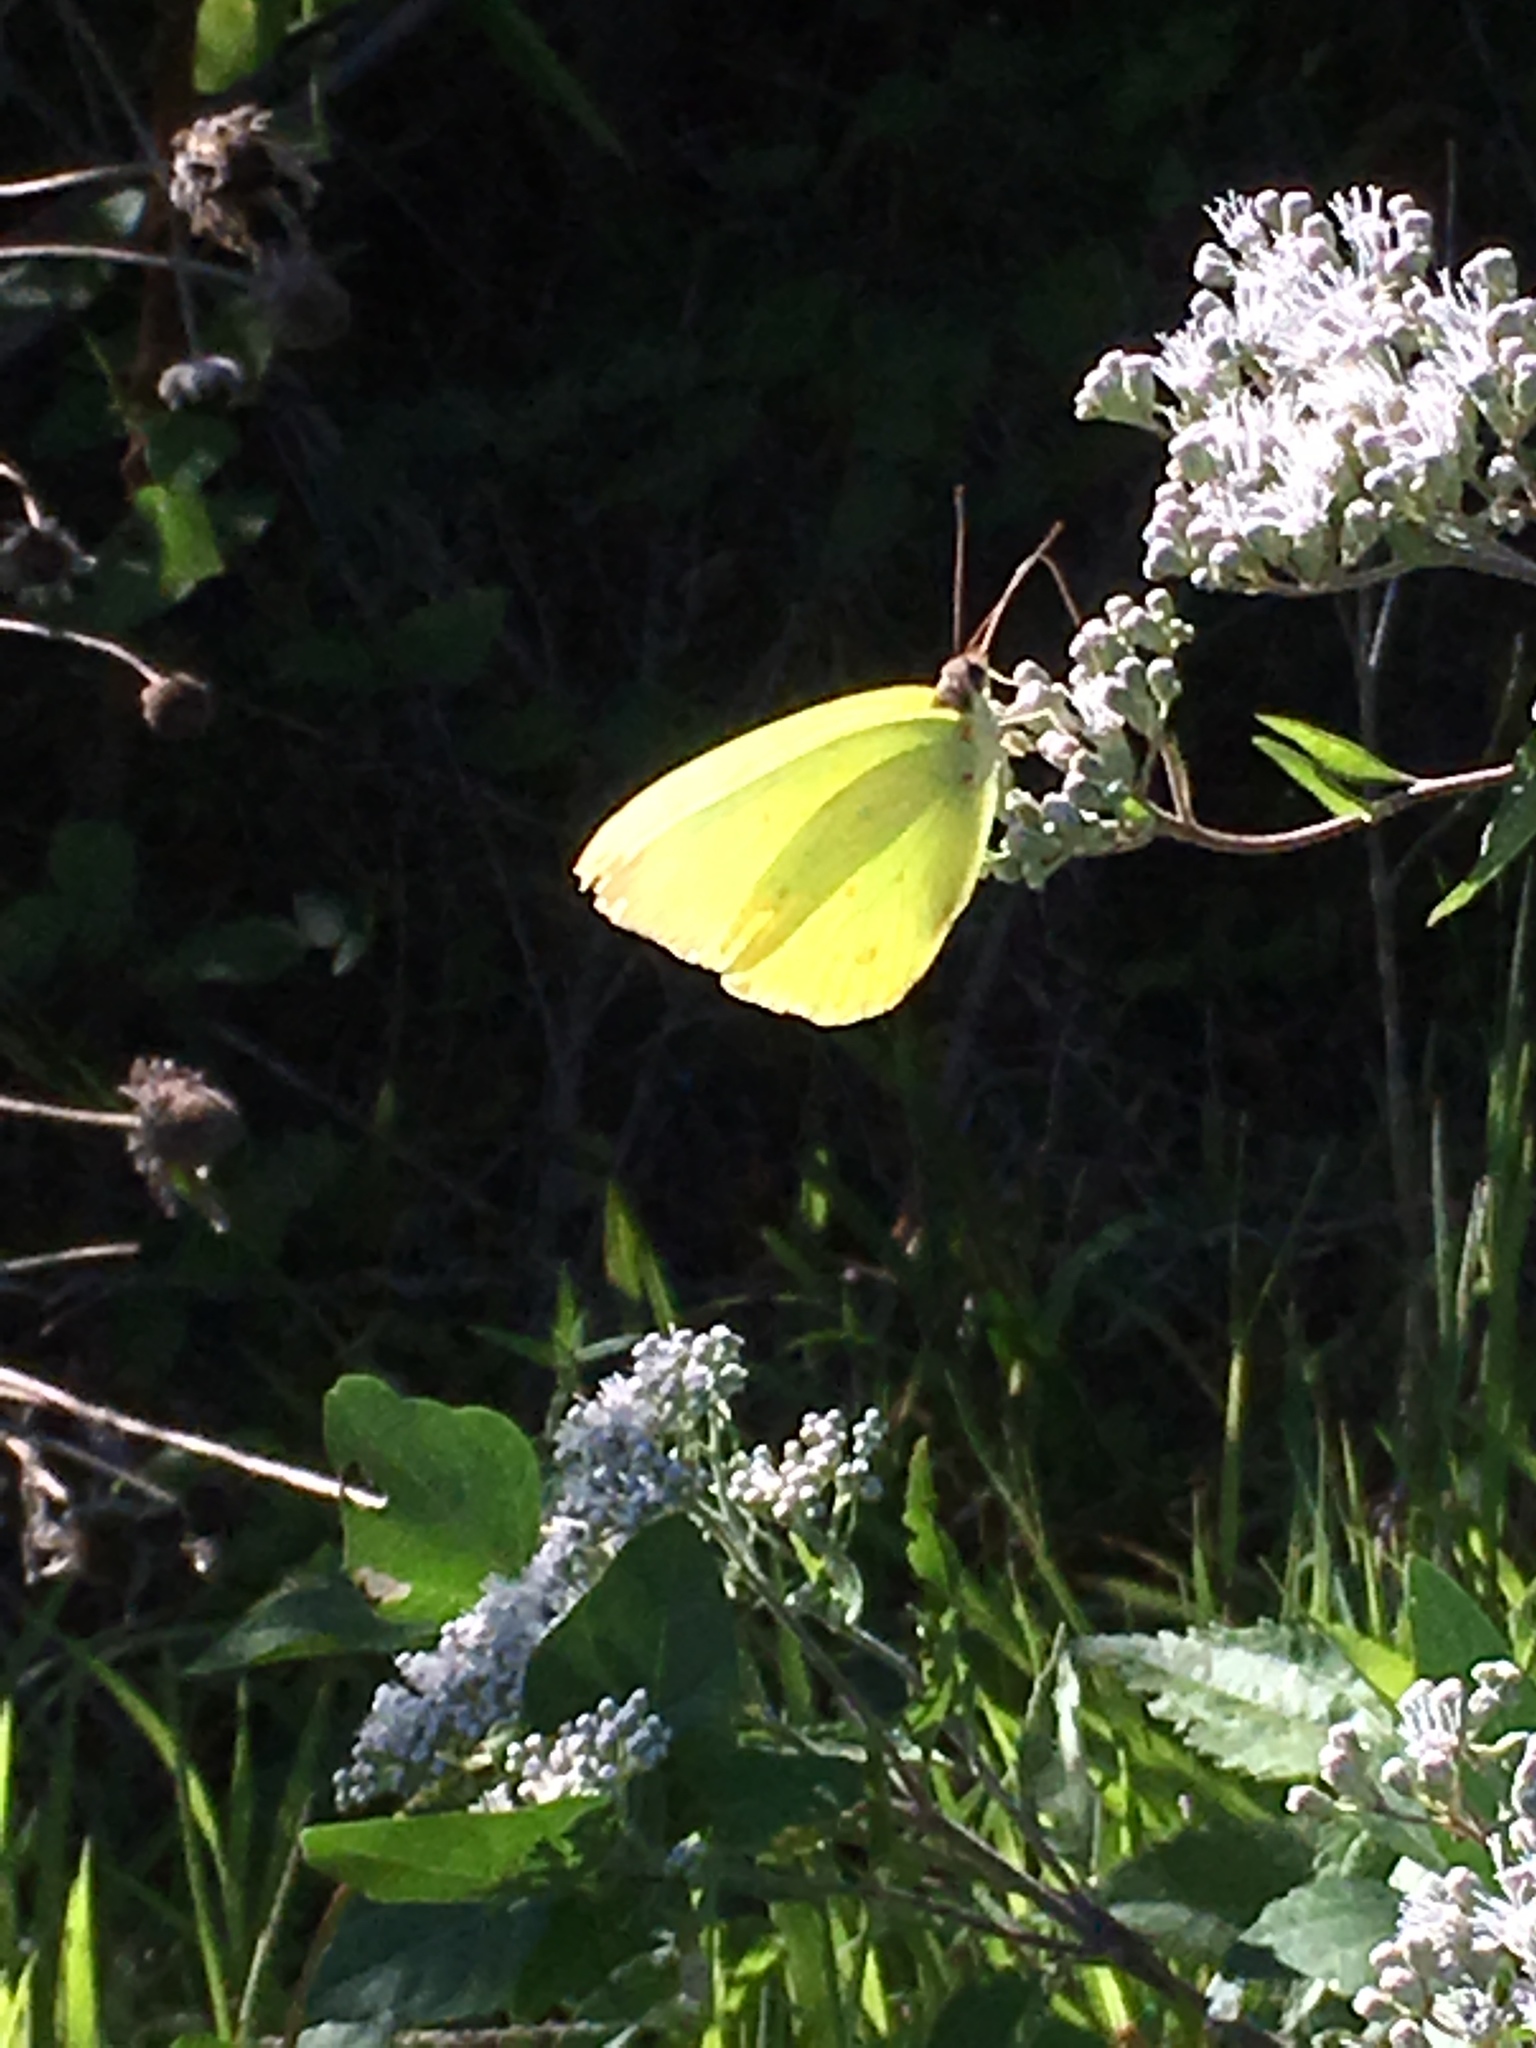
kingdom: Animalia
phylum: Arthropoda
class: Insecta
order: Lepidoptera
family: Pieridae
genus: Phoebis
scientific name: Phoebis sennae
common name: Cloudless sulphur
